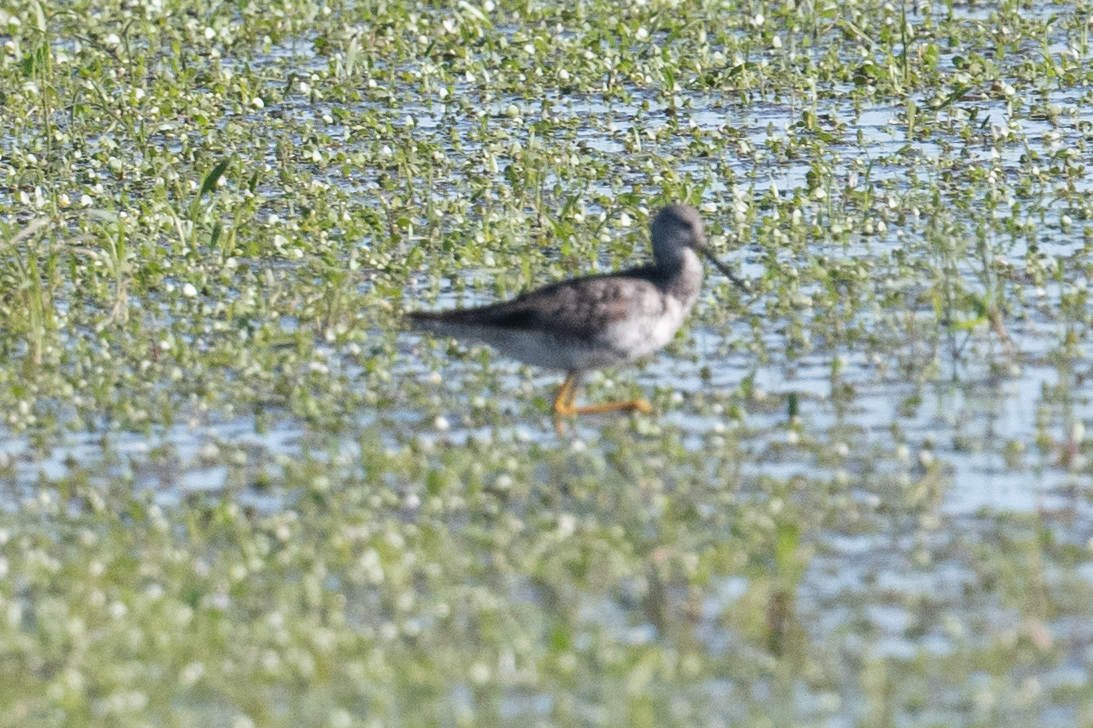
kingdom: Animalia
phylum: Chordata
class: Aves
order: Charadriiformes
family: Scolopacidae
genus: Tringa
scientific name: Tringa melanoleuca
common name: Greater yellowlegs
